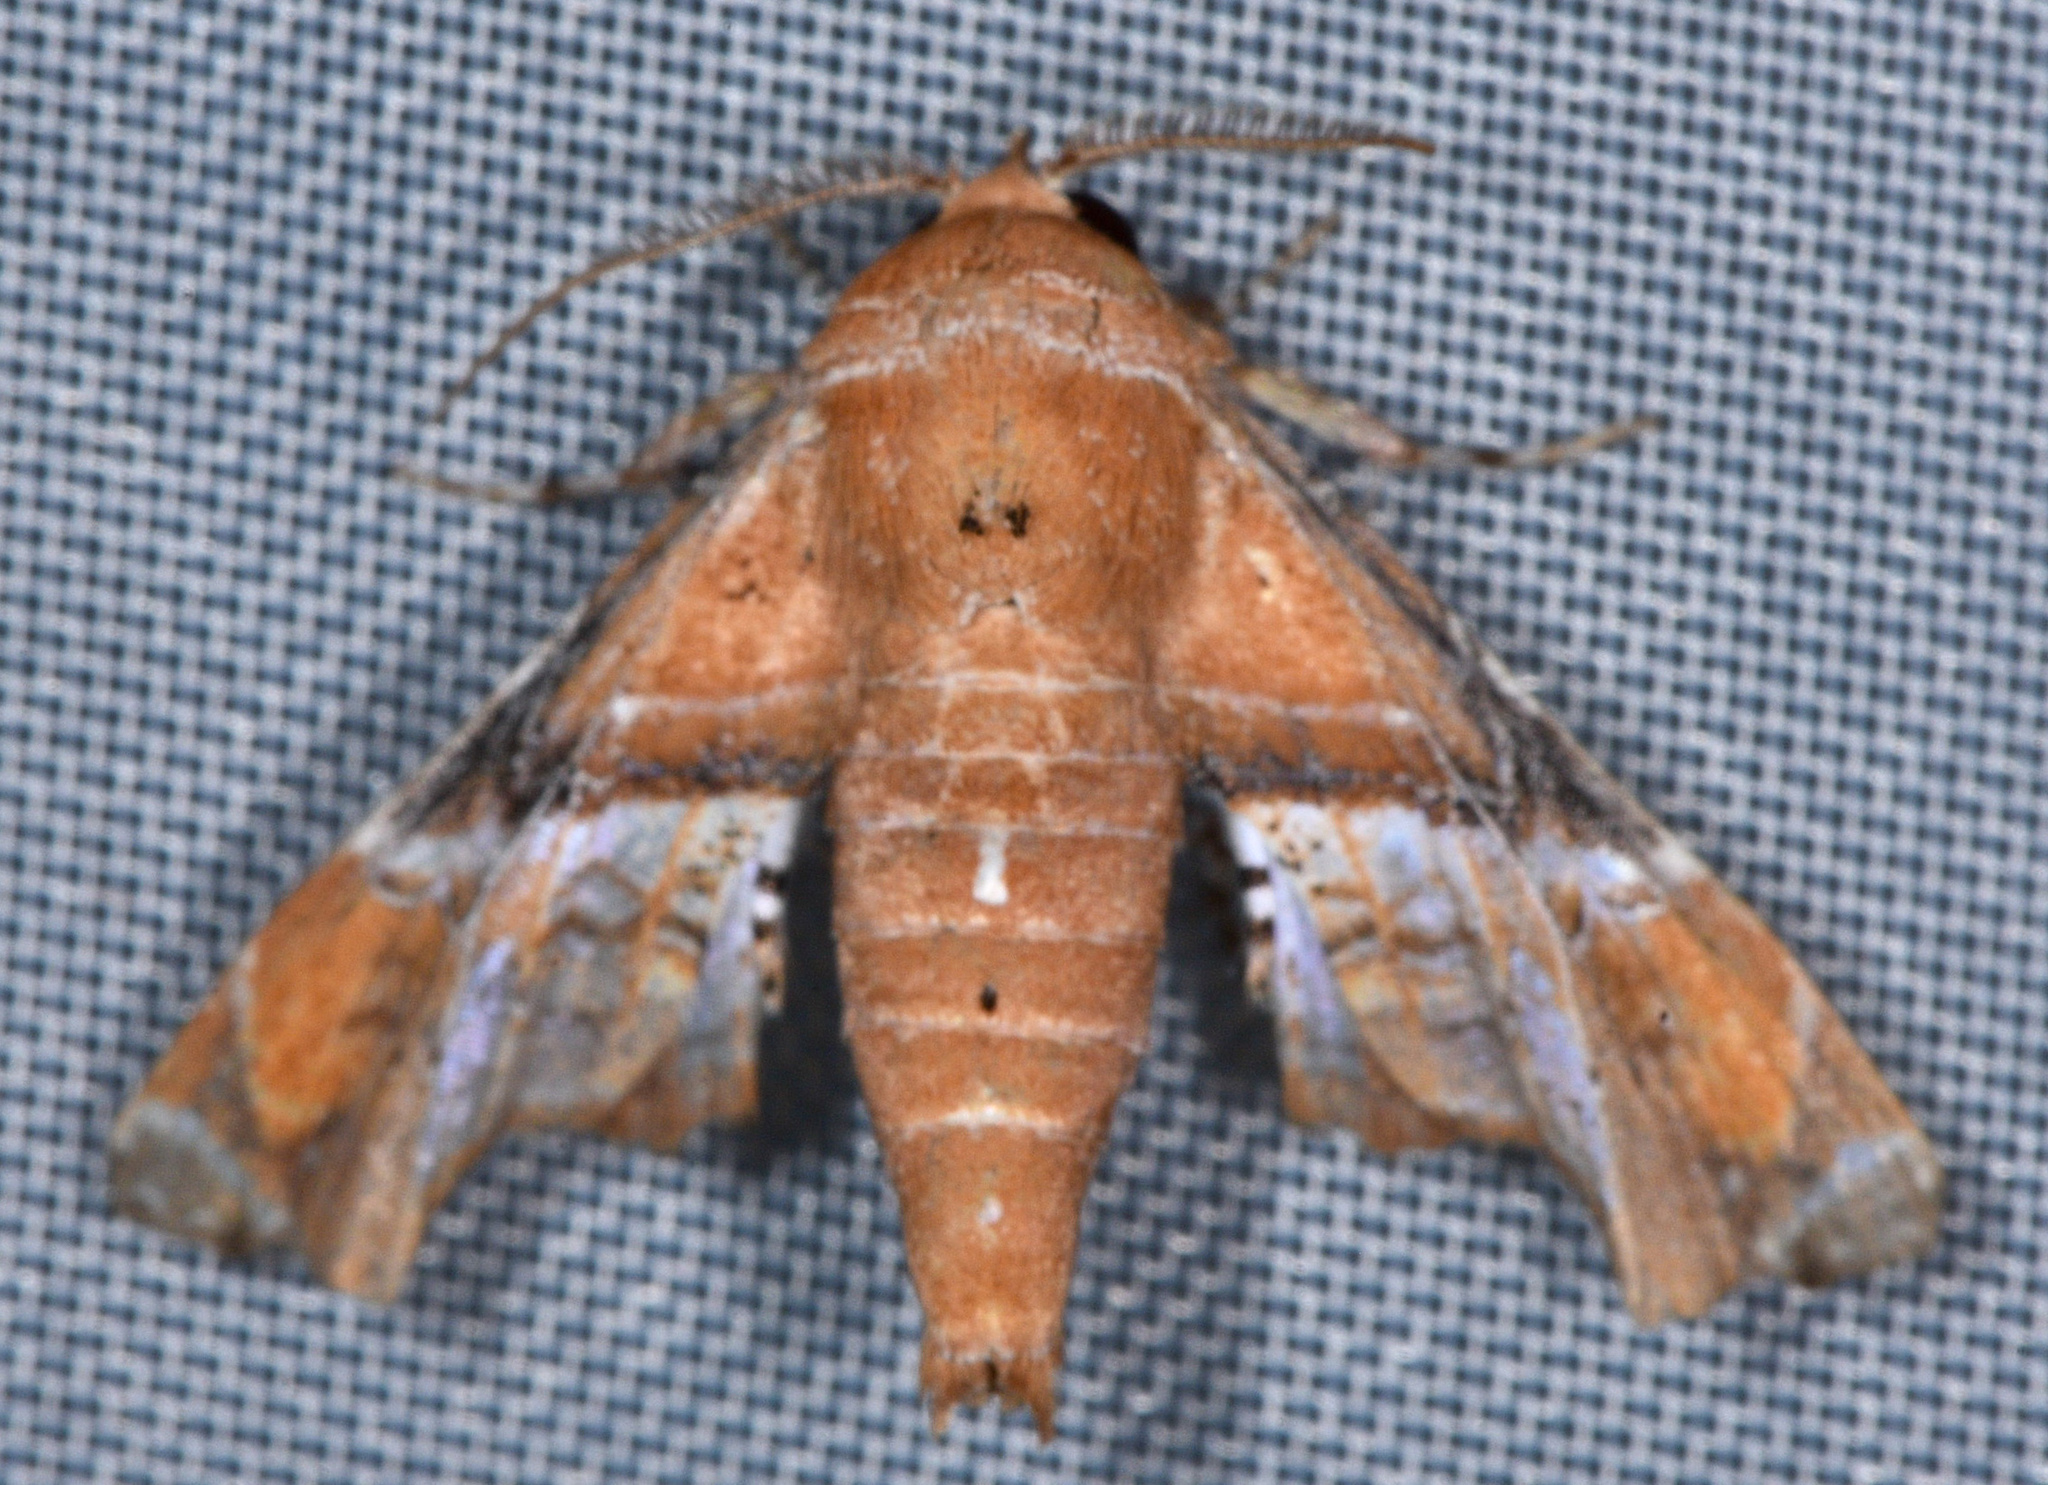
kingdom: Animalia
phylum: Arthropoda
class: Insecta
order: Lepidoptera
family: Euteliidae
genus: Eutelia
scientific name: Eutelia ablatrix
